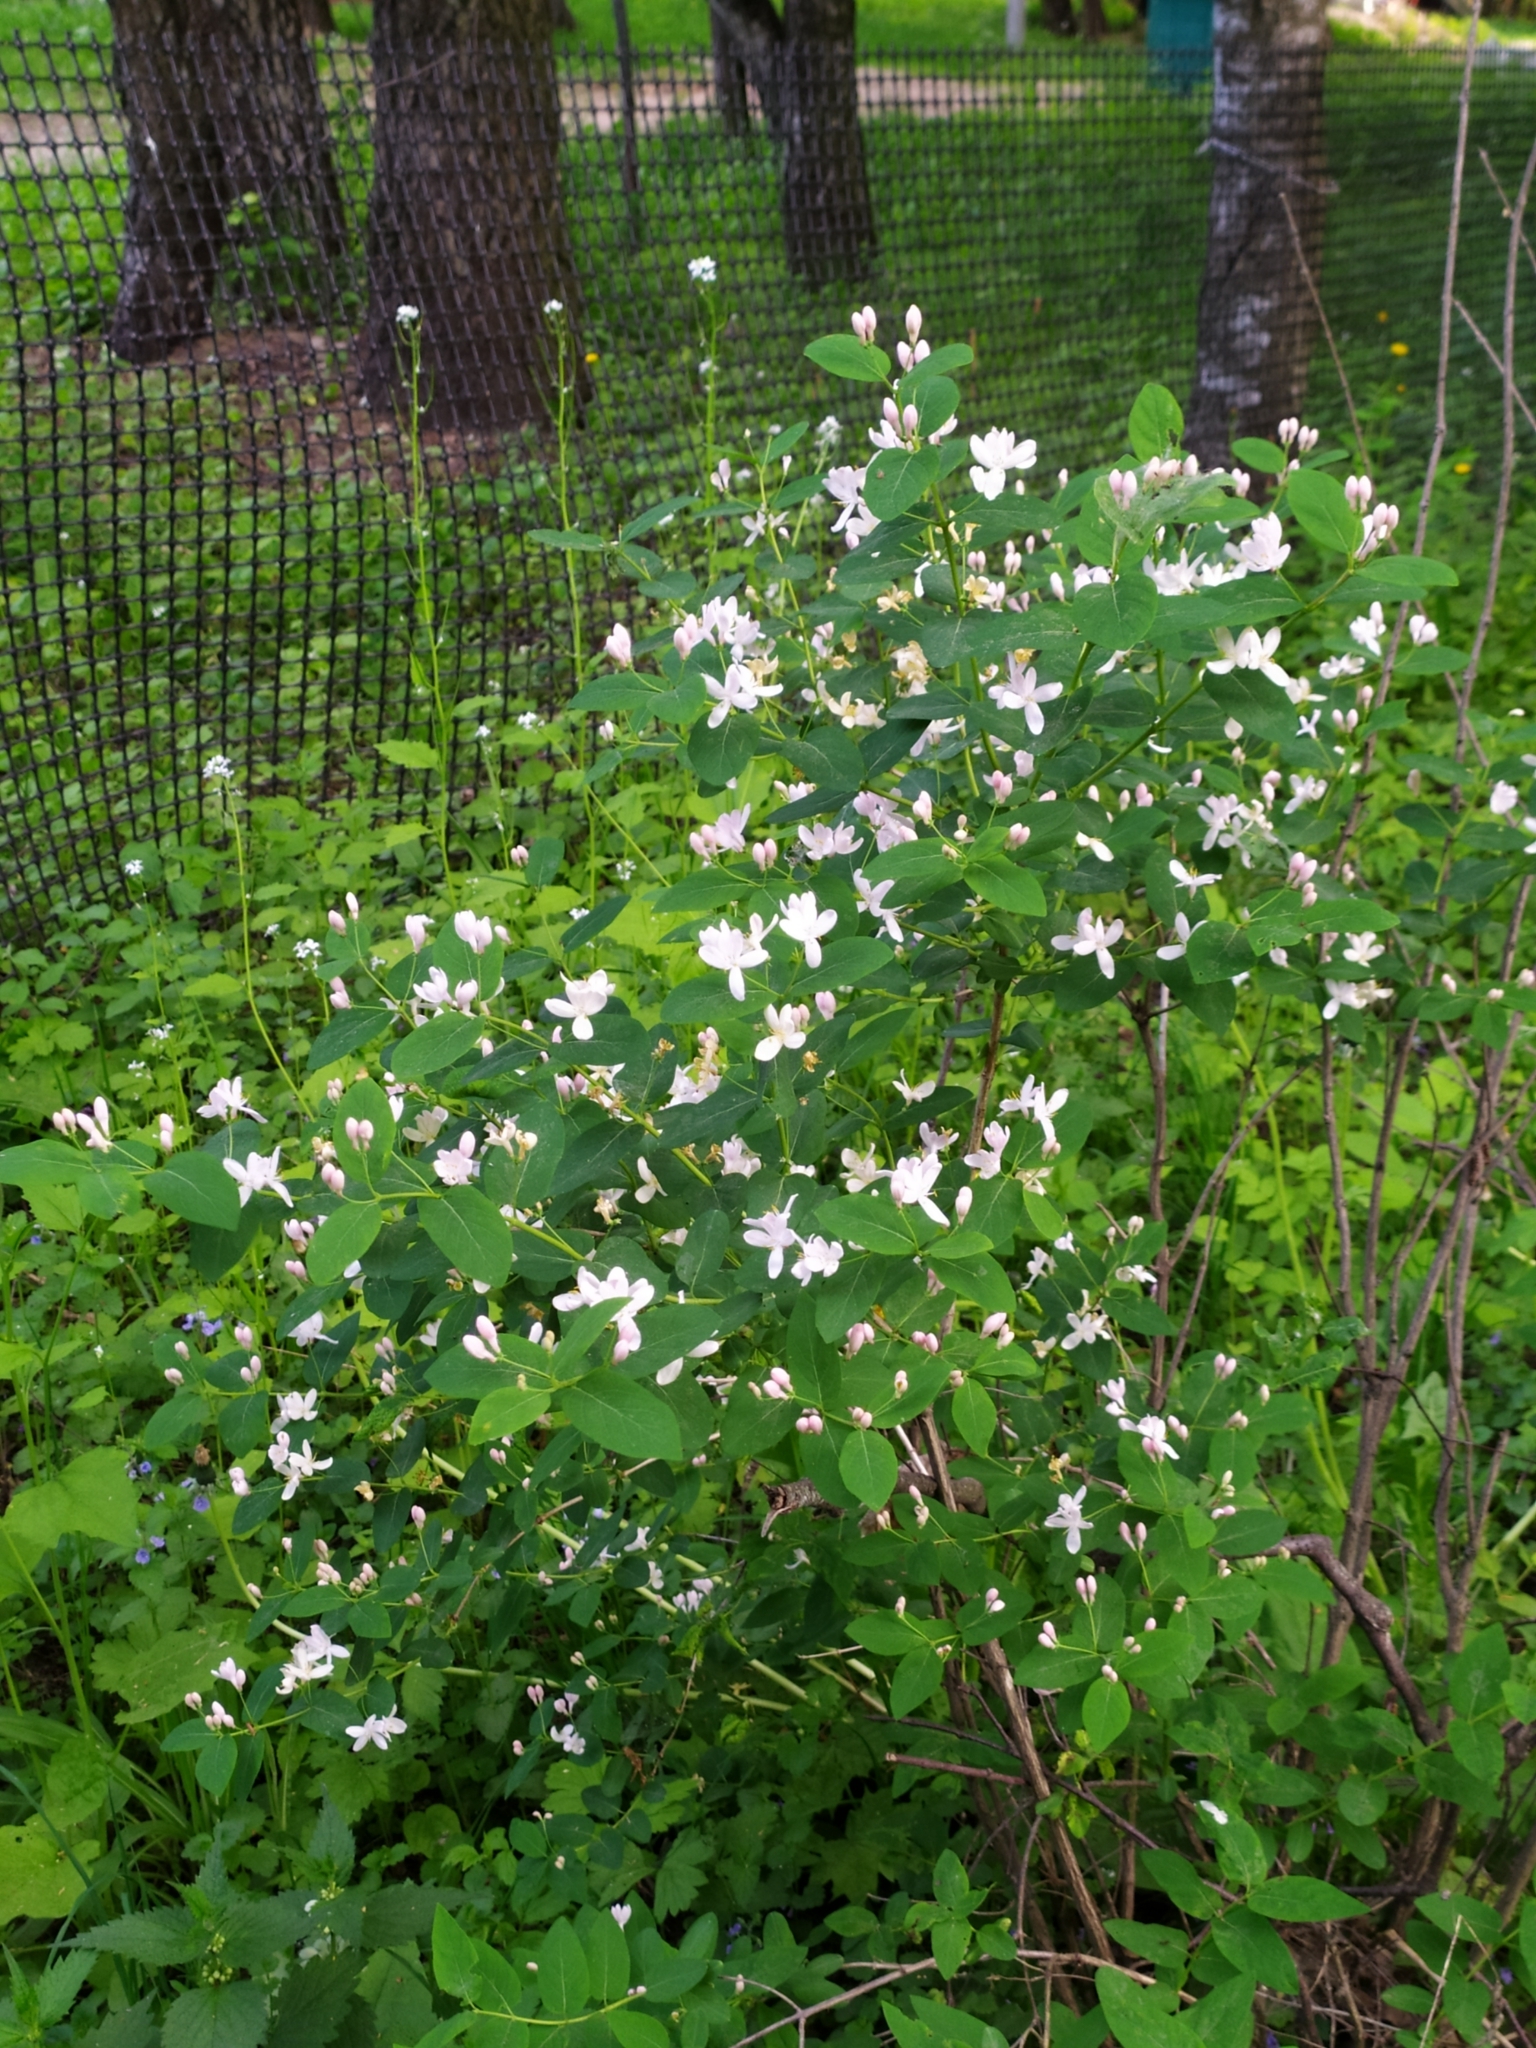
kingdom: Plantae
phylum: Tracheophyta
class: Magnoliopsida
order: Dipsacales
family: Caprifoliaceae
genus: Lonicera
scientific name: Lonicera tatarica
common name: Tatarian honeysuckle
